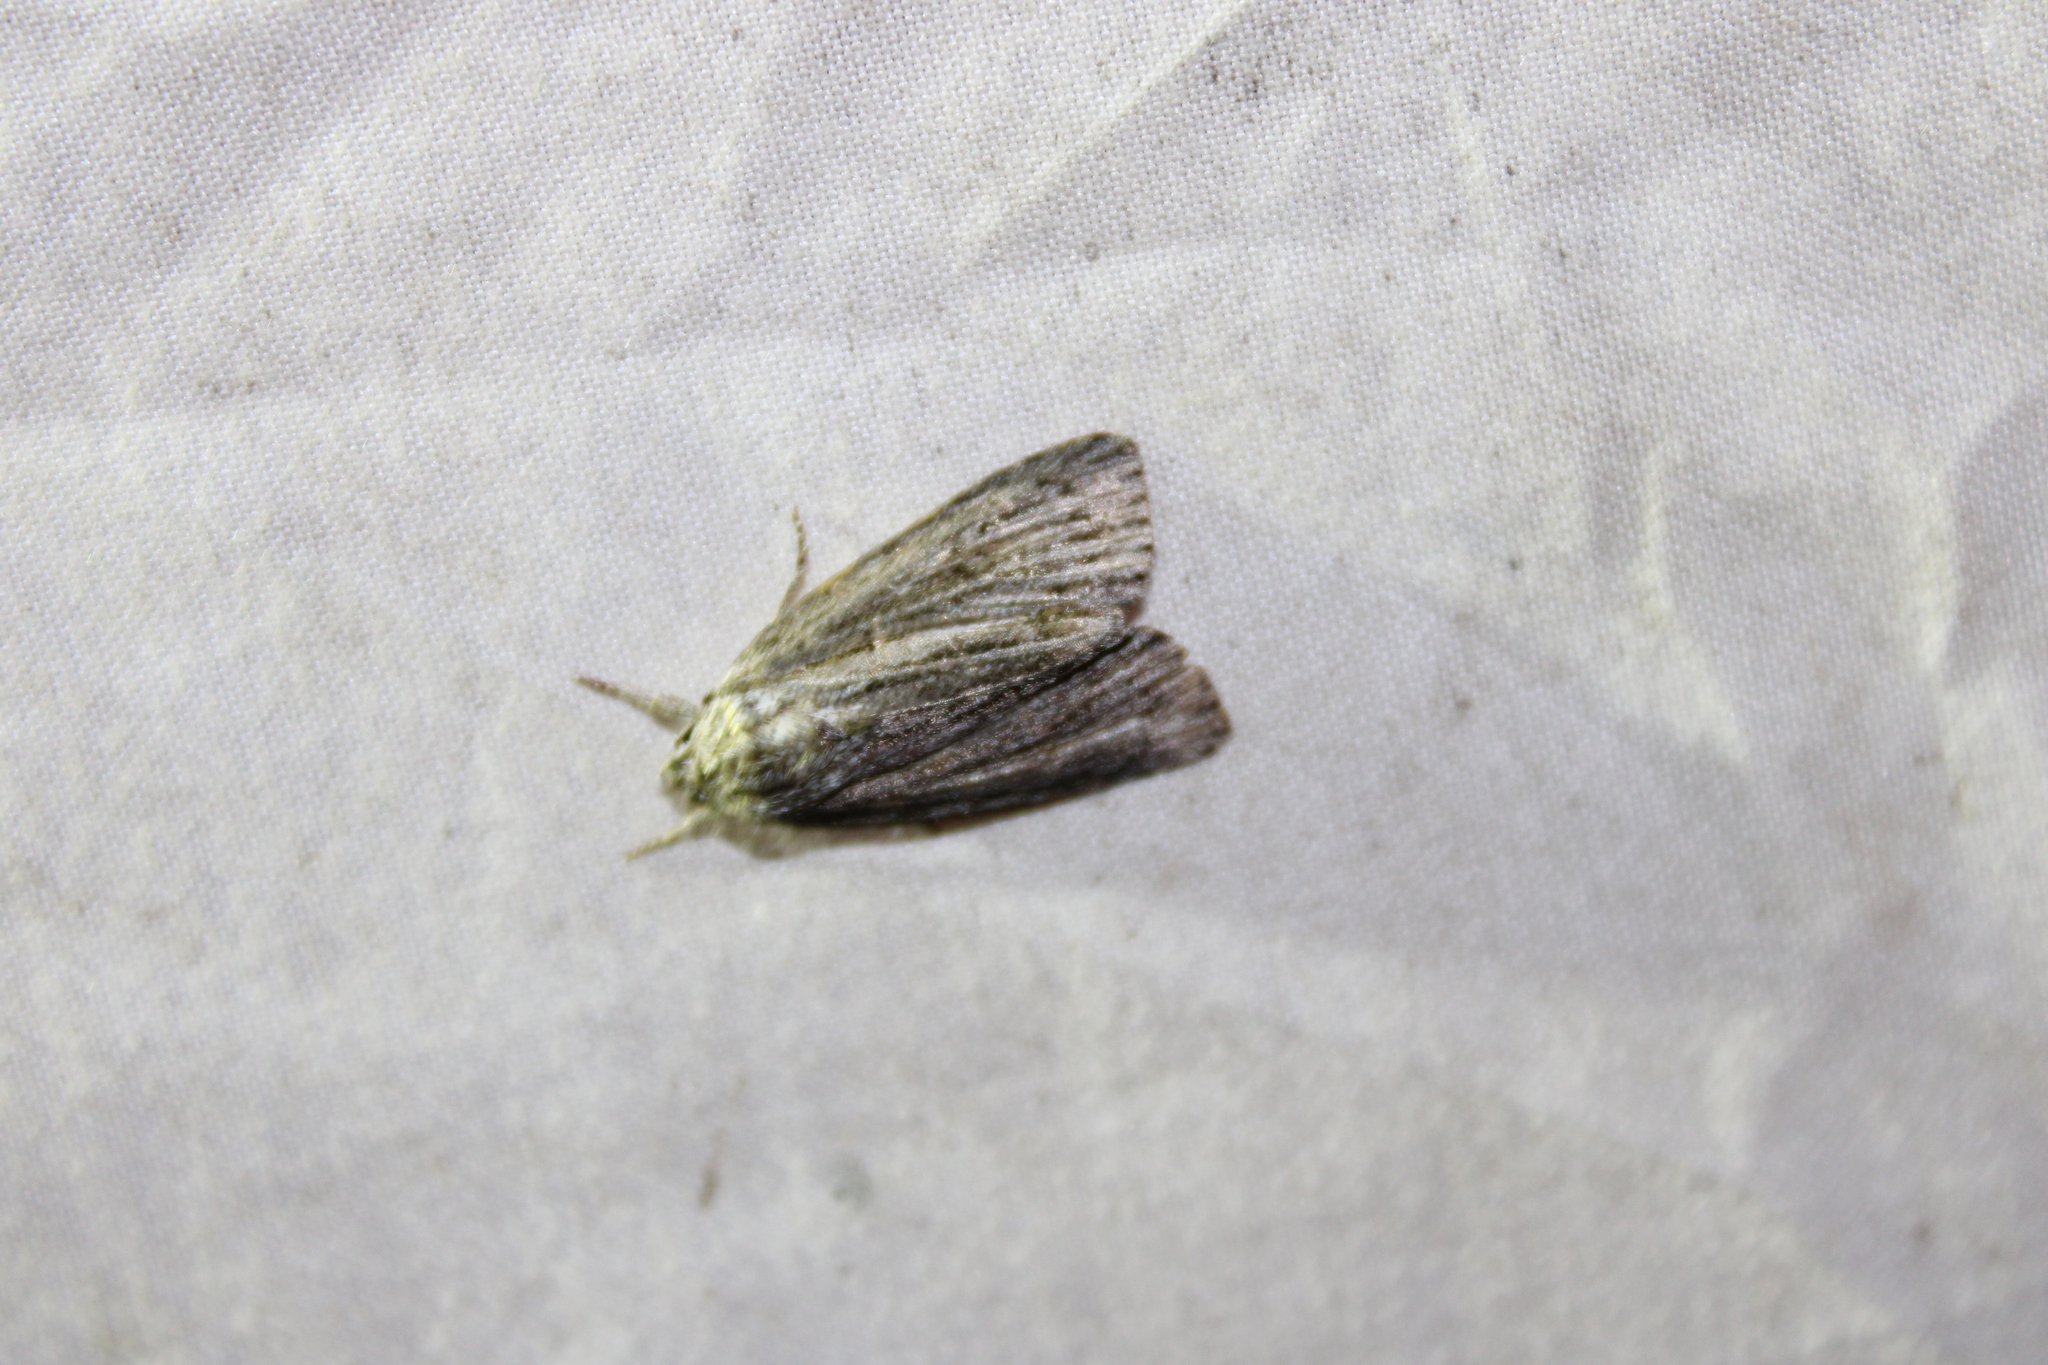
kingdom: Animalia
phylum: Arthropoda
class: Insecta
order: Lepidoptera
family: Noctuidae
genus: Acronicta
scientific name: Acronicta lithospila
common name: Streaked dagger
